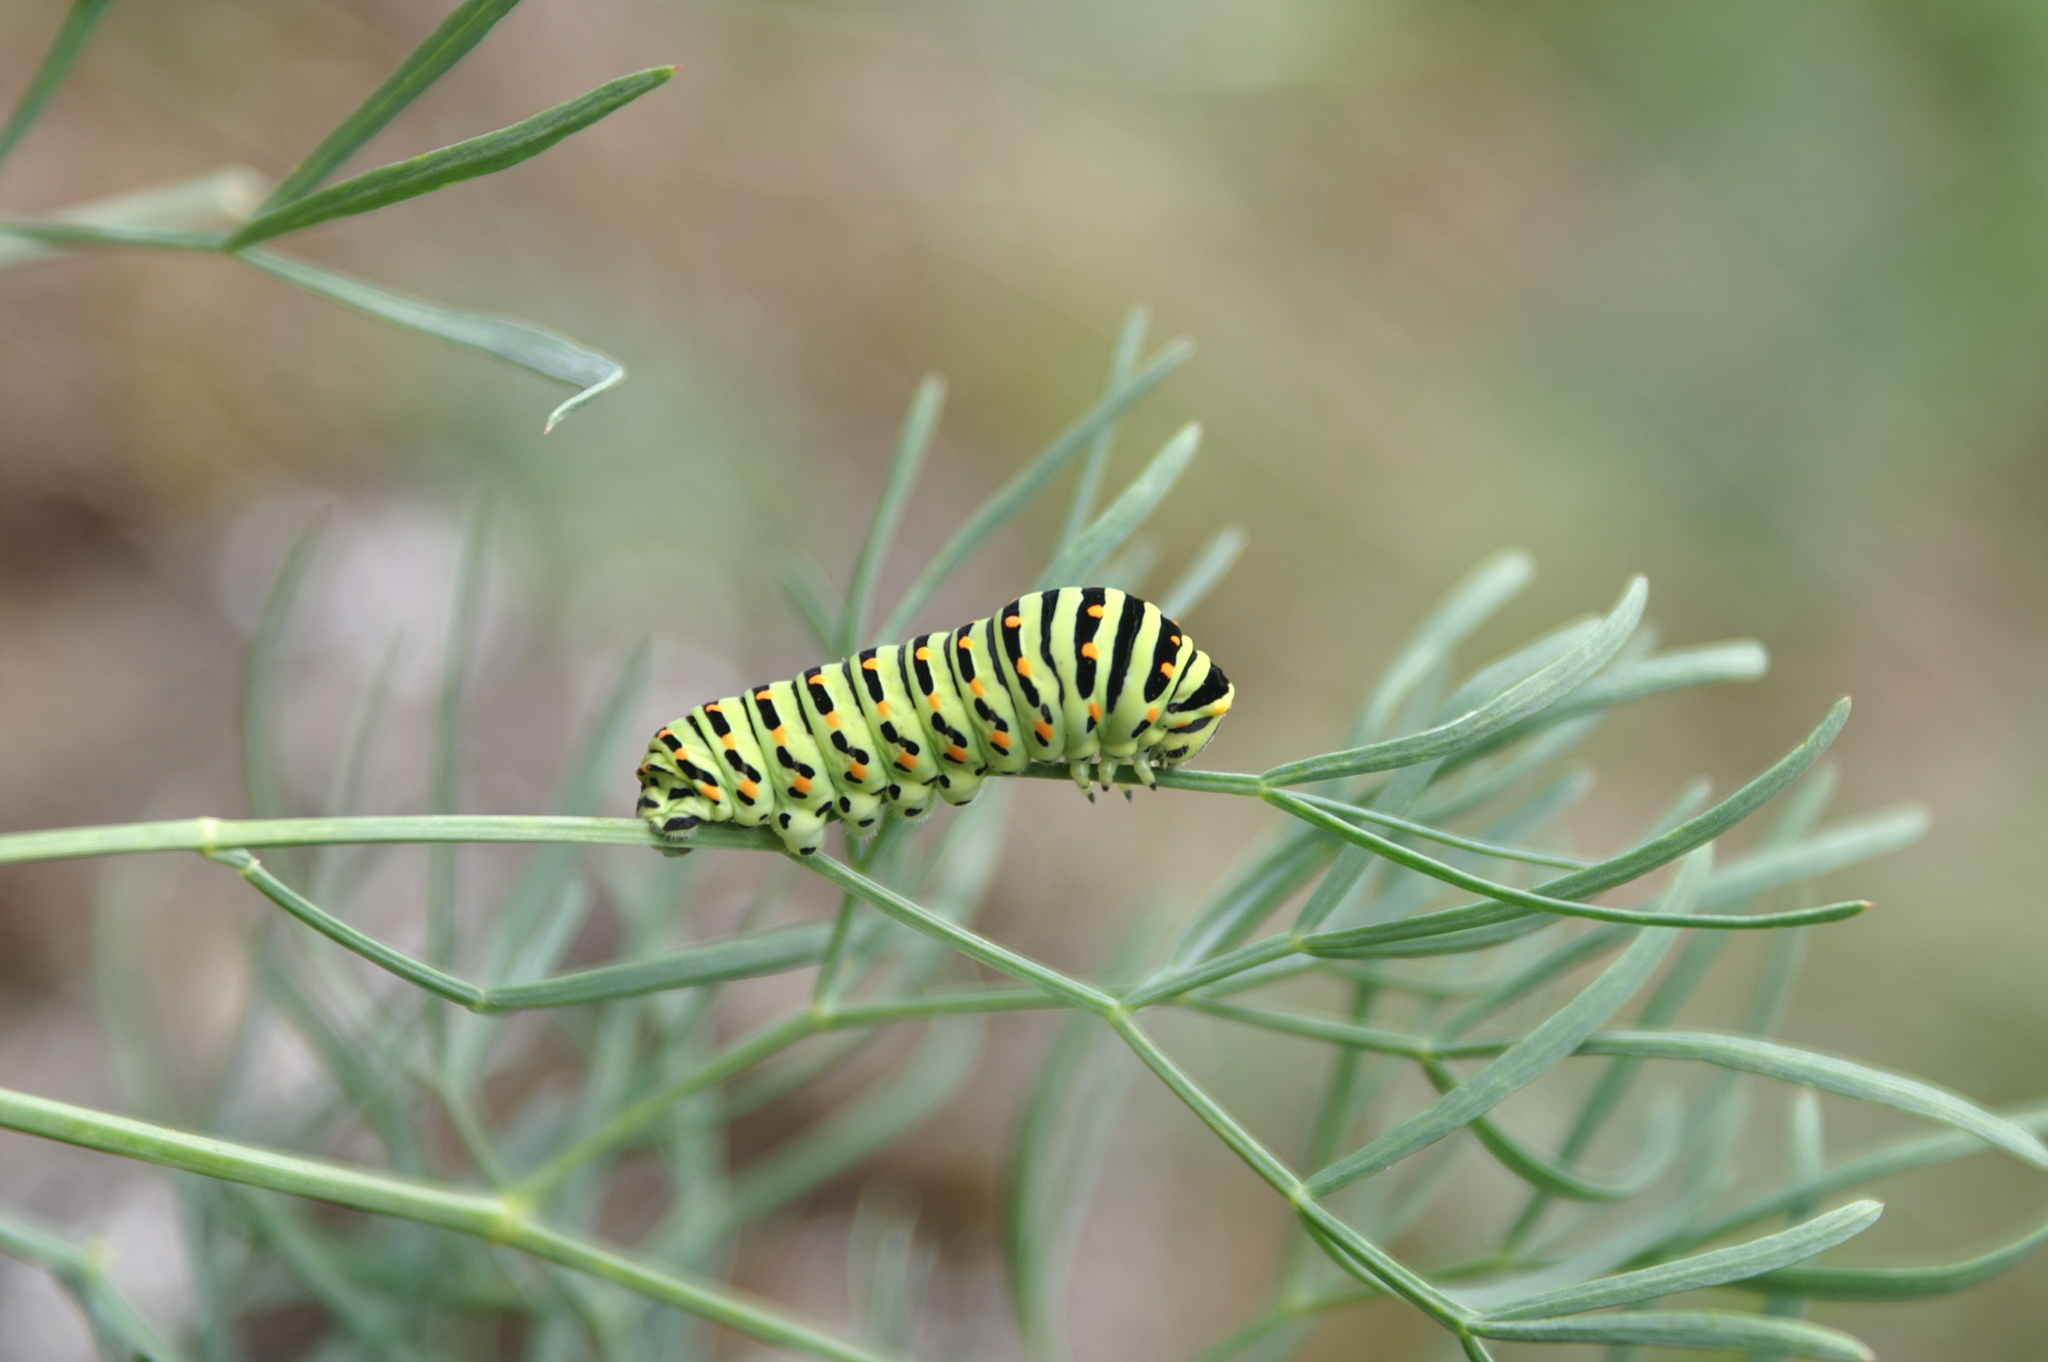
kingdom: Animalia
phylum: Arthropoda
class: Insecta
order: Lepidoptera
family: Papilionidae
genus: Papilio
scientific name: Papilio machaon
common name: Swallowtail
